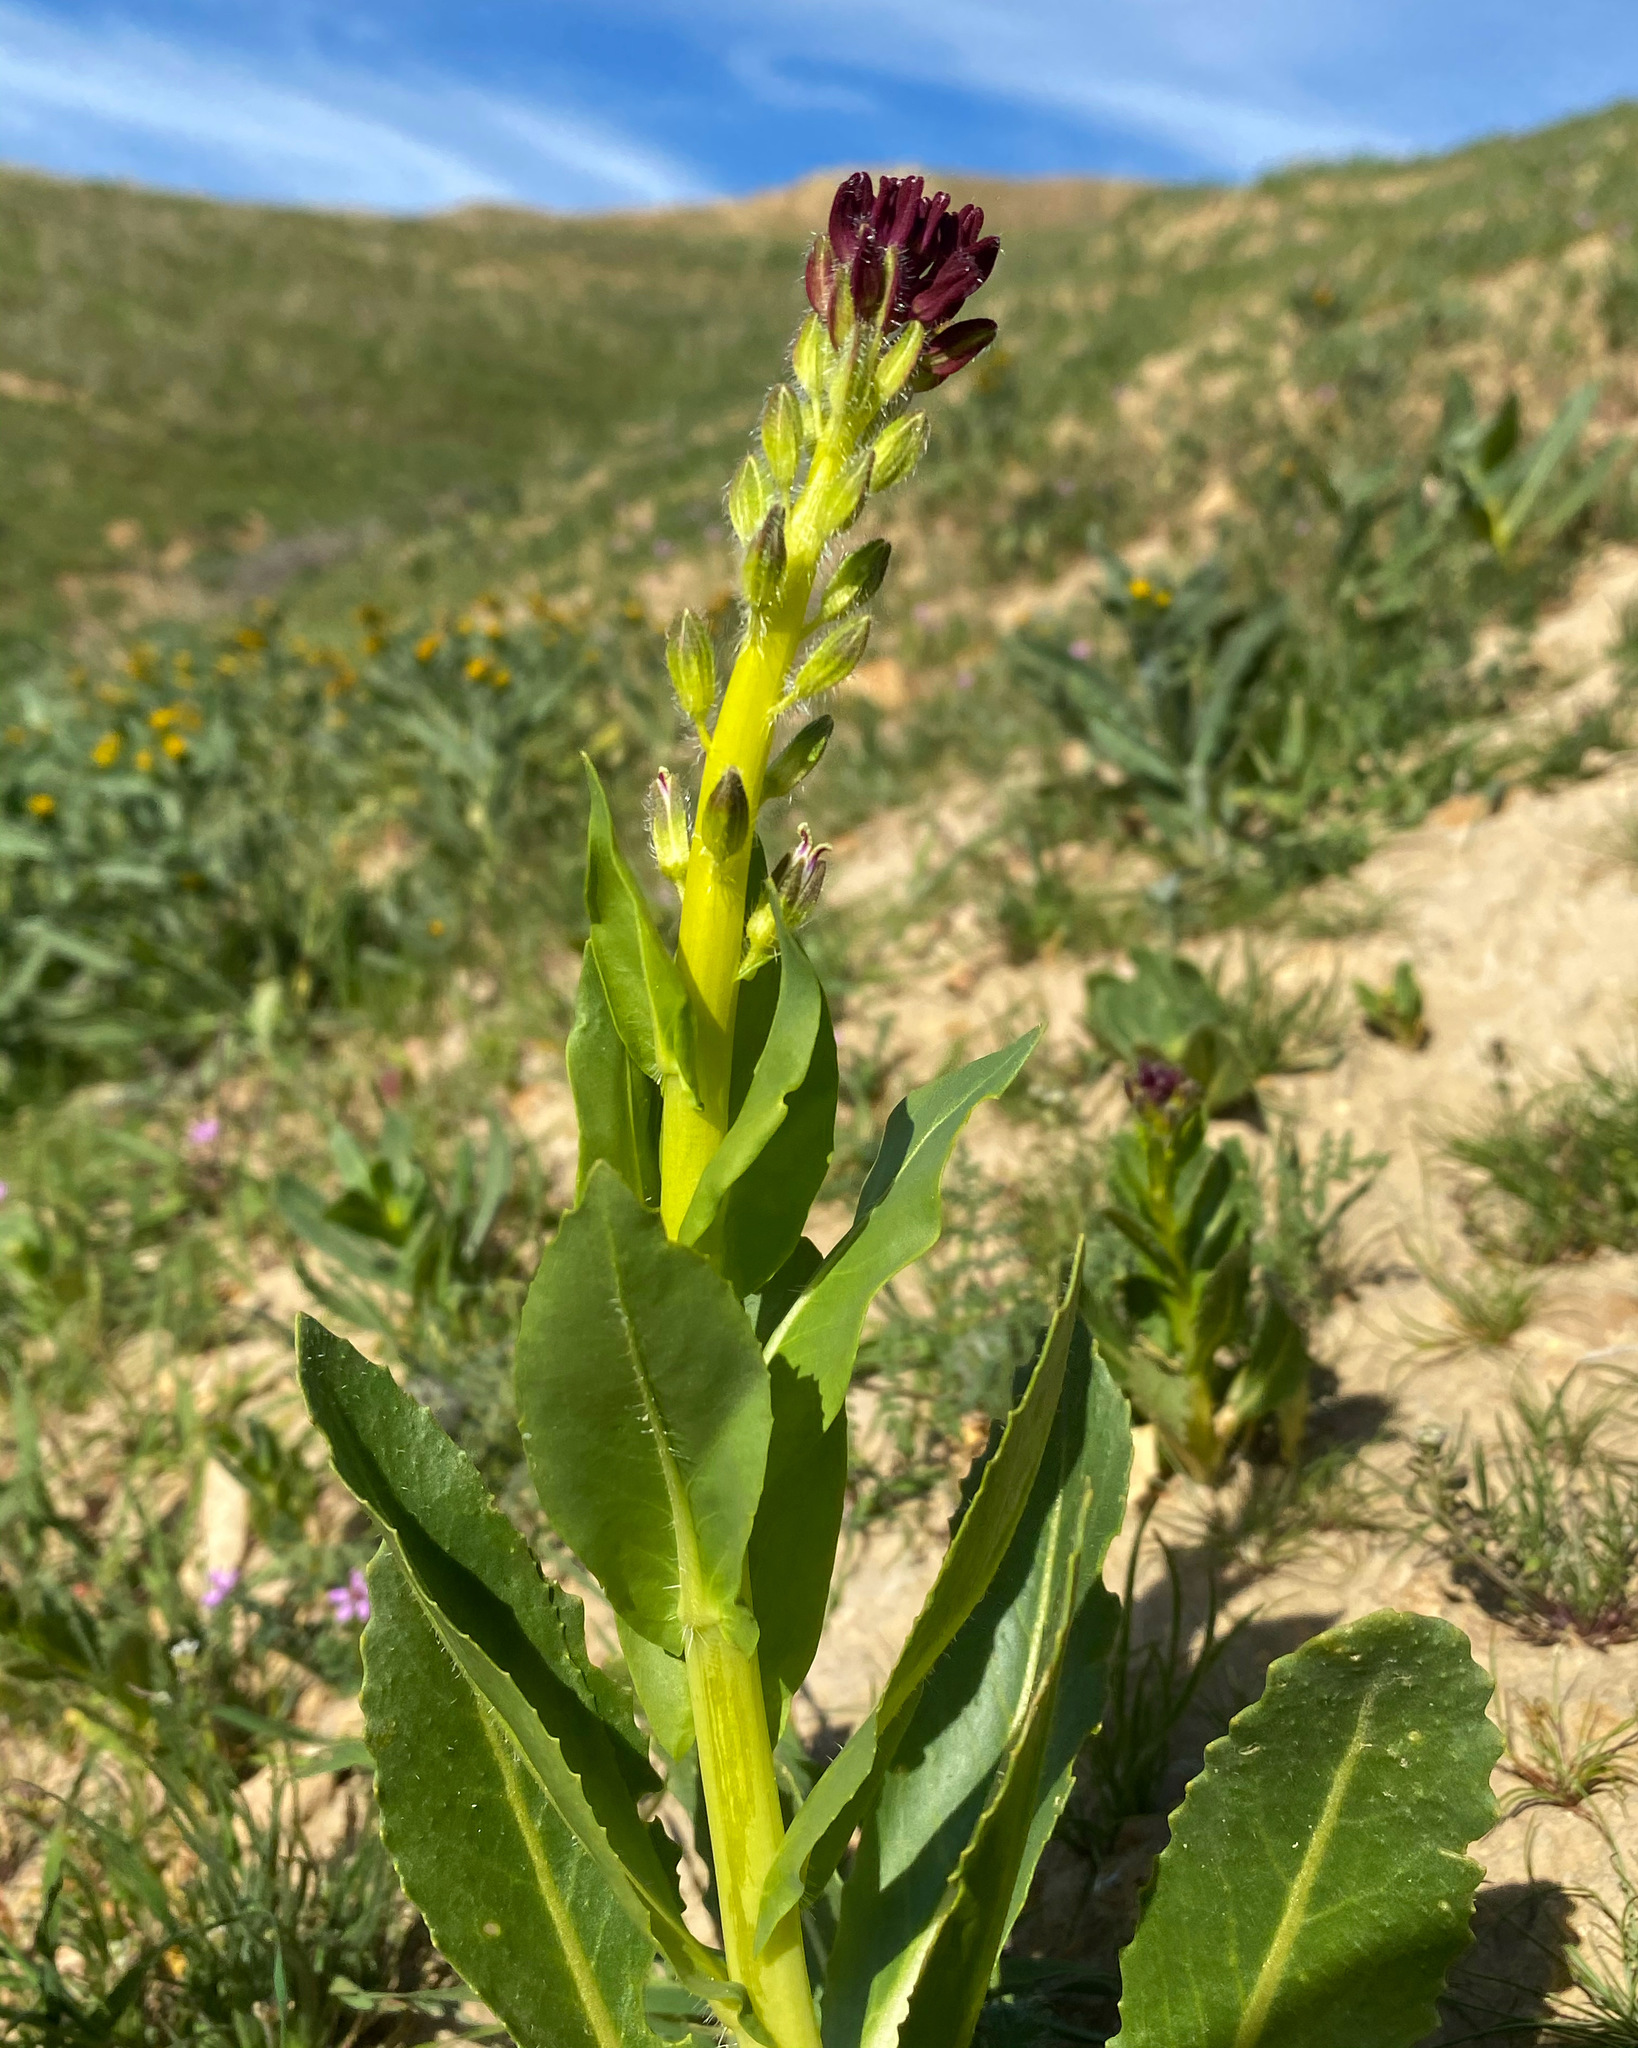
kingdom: Plantae
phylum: Tracheophyta
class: Magnoliopsida
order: Brassicales
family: Brassicaceae
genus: Streptanthus
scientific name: Streptanthus inflatus
